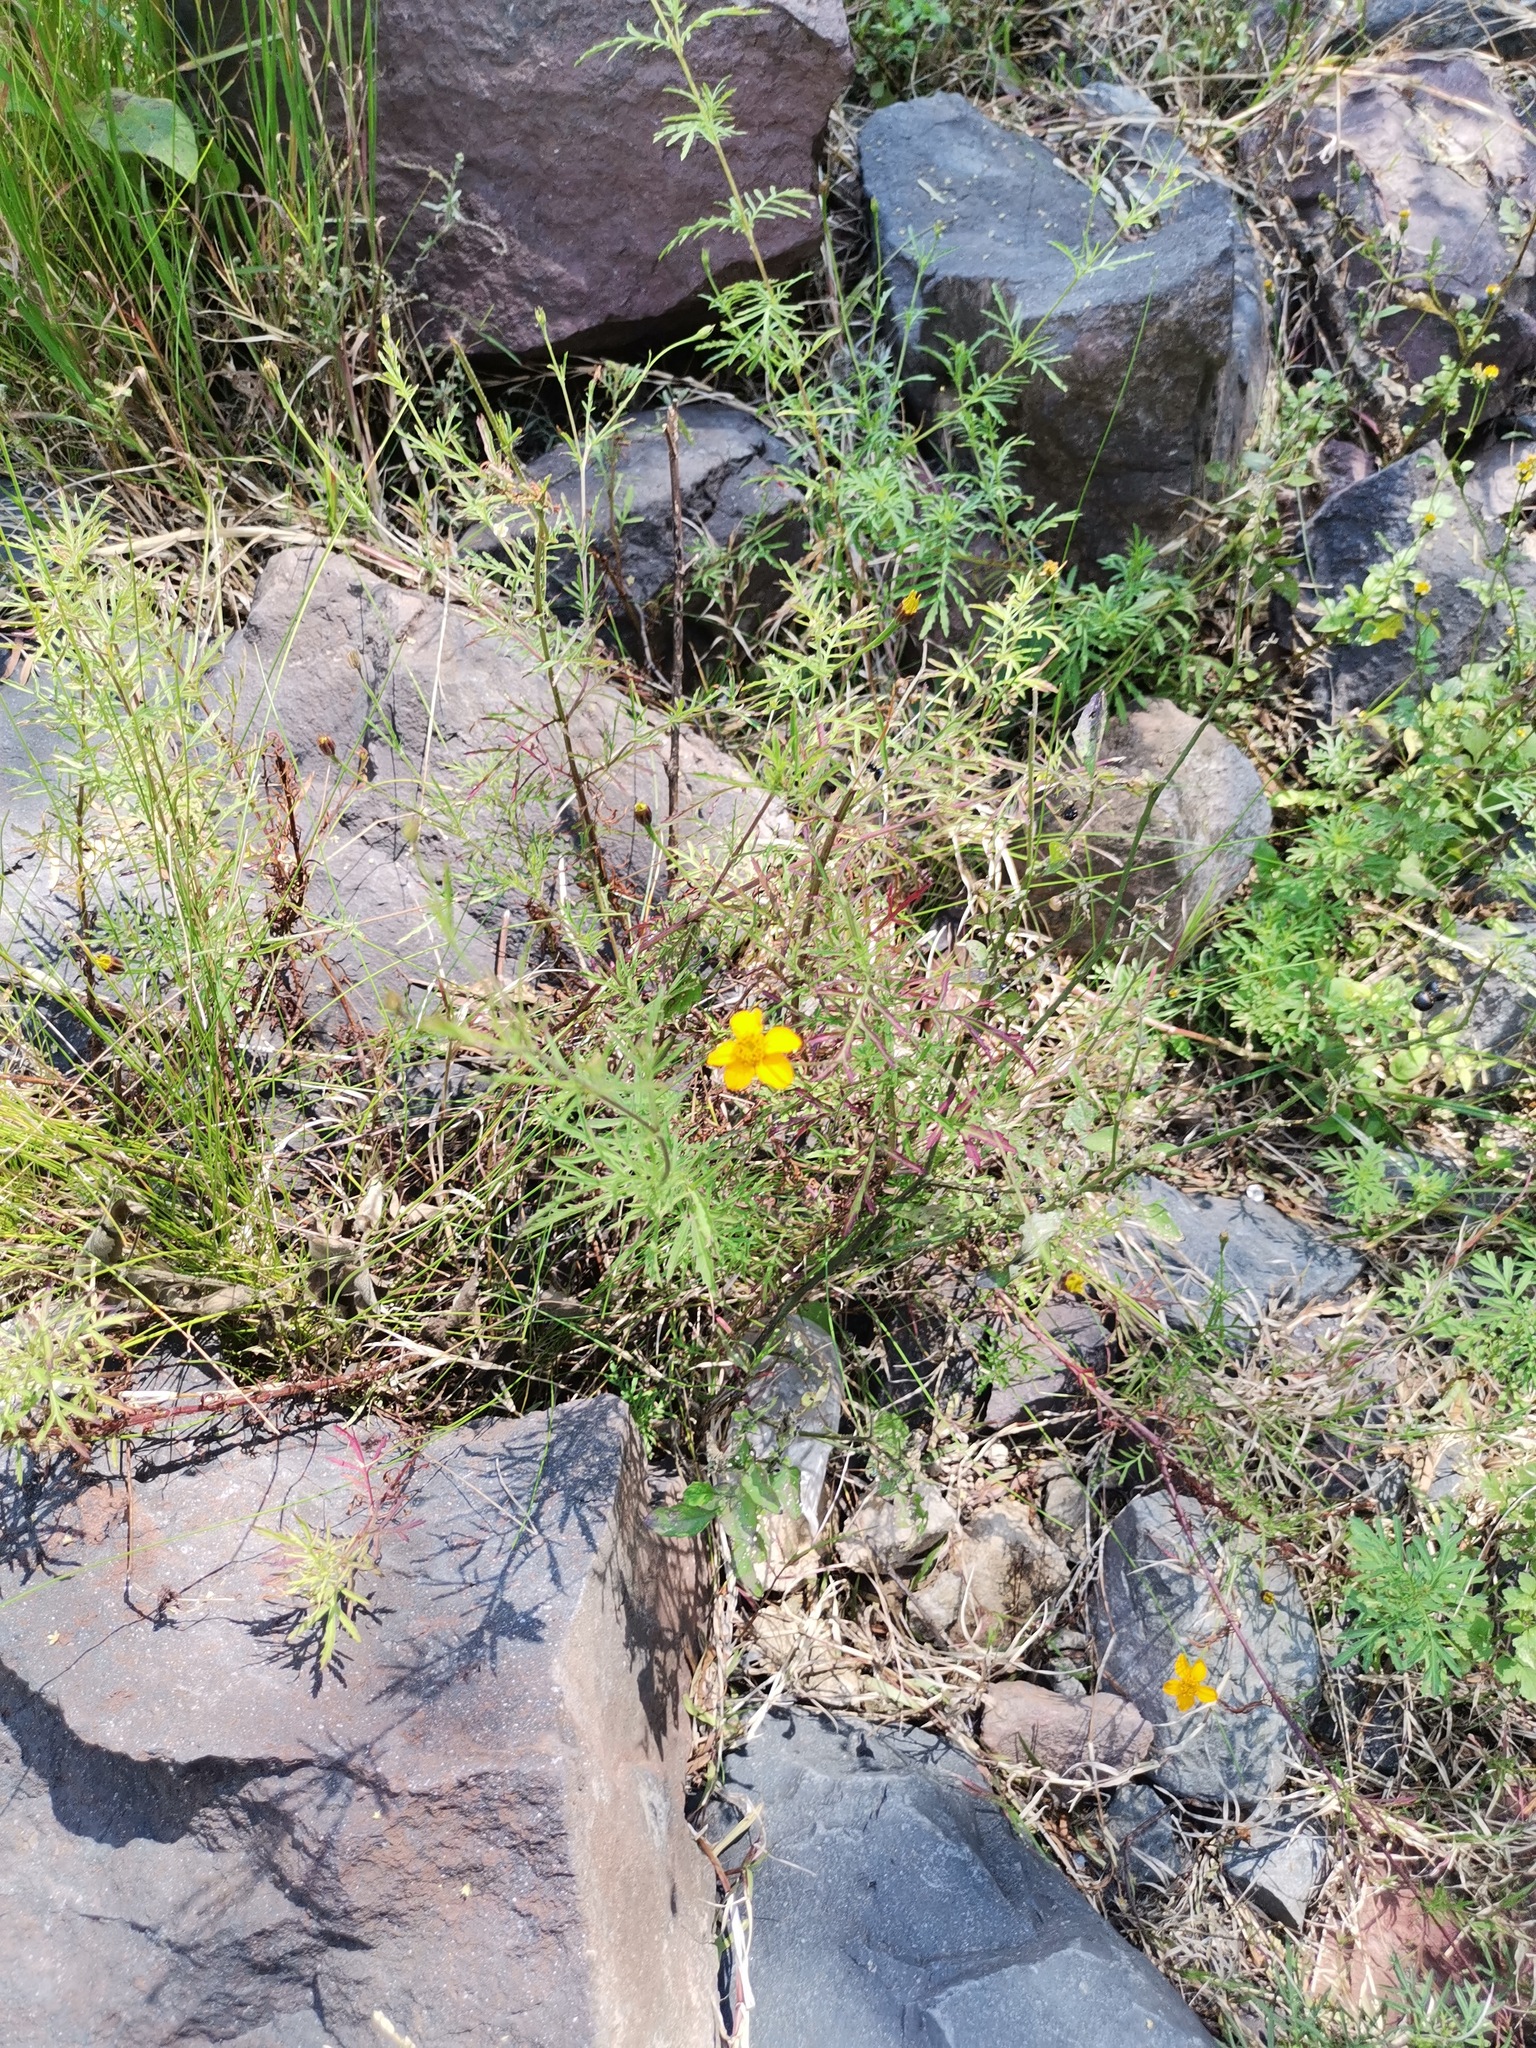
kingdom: Plantae
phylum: Tracheophyta
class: Magnoliopsida
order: Asterales
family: Asteraceae
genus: Dyssodia
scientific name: Dyssodia pinnata
